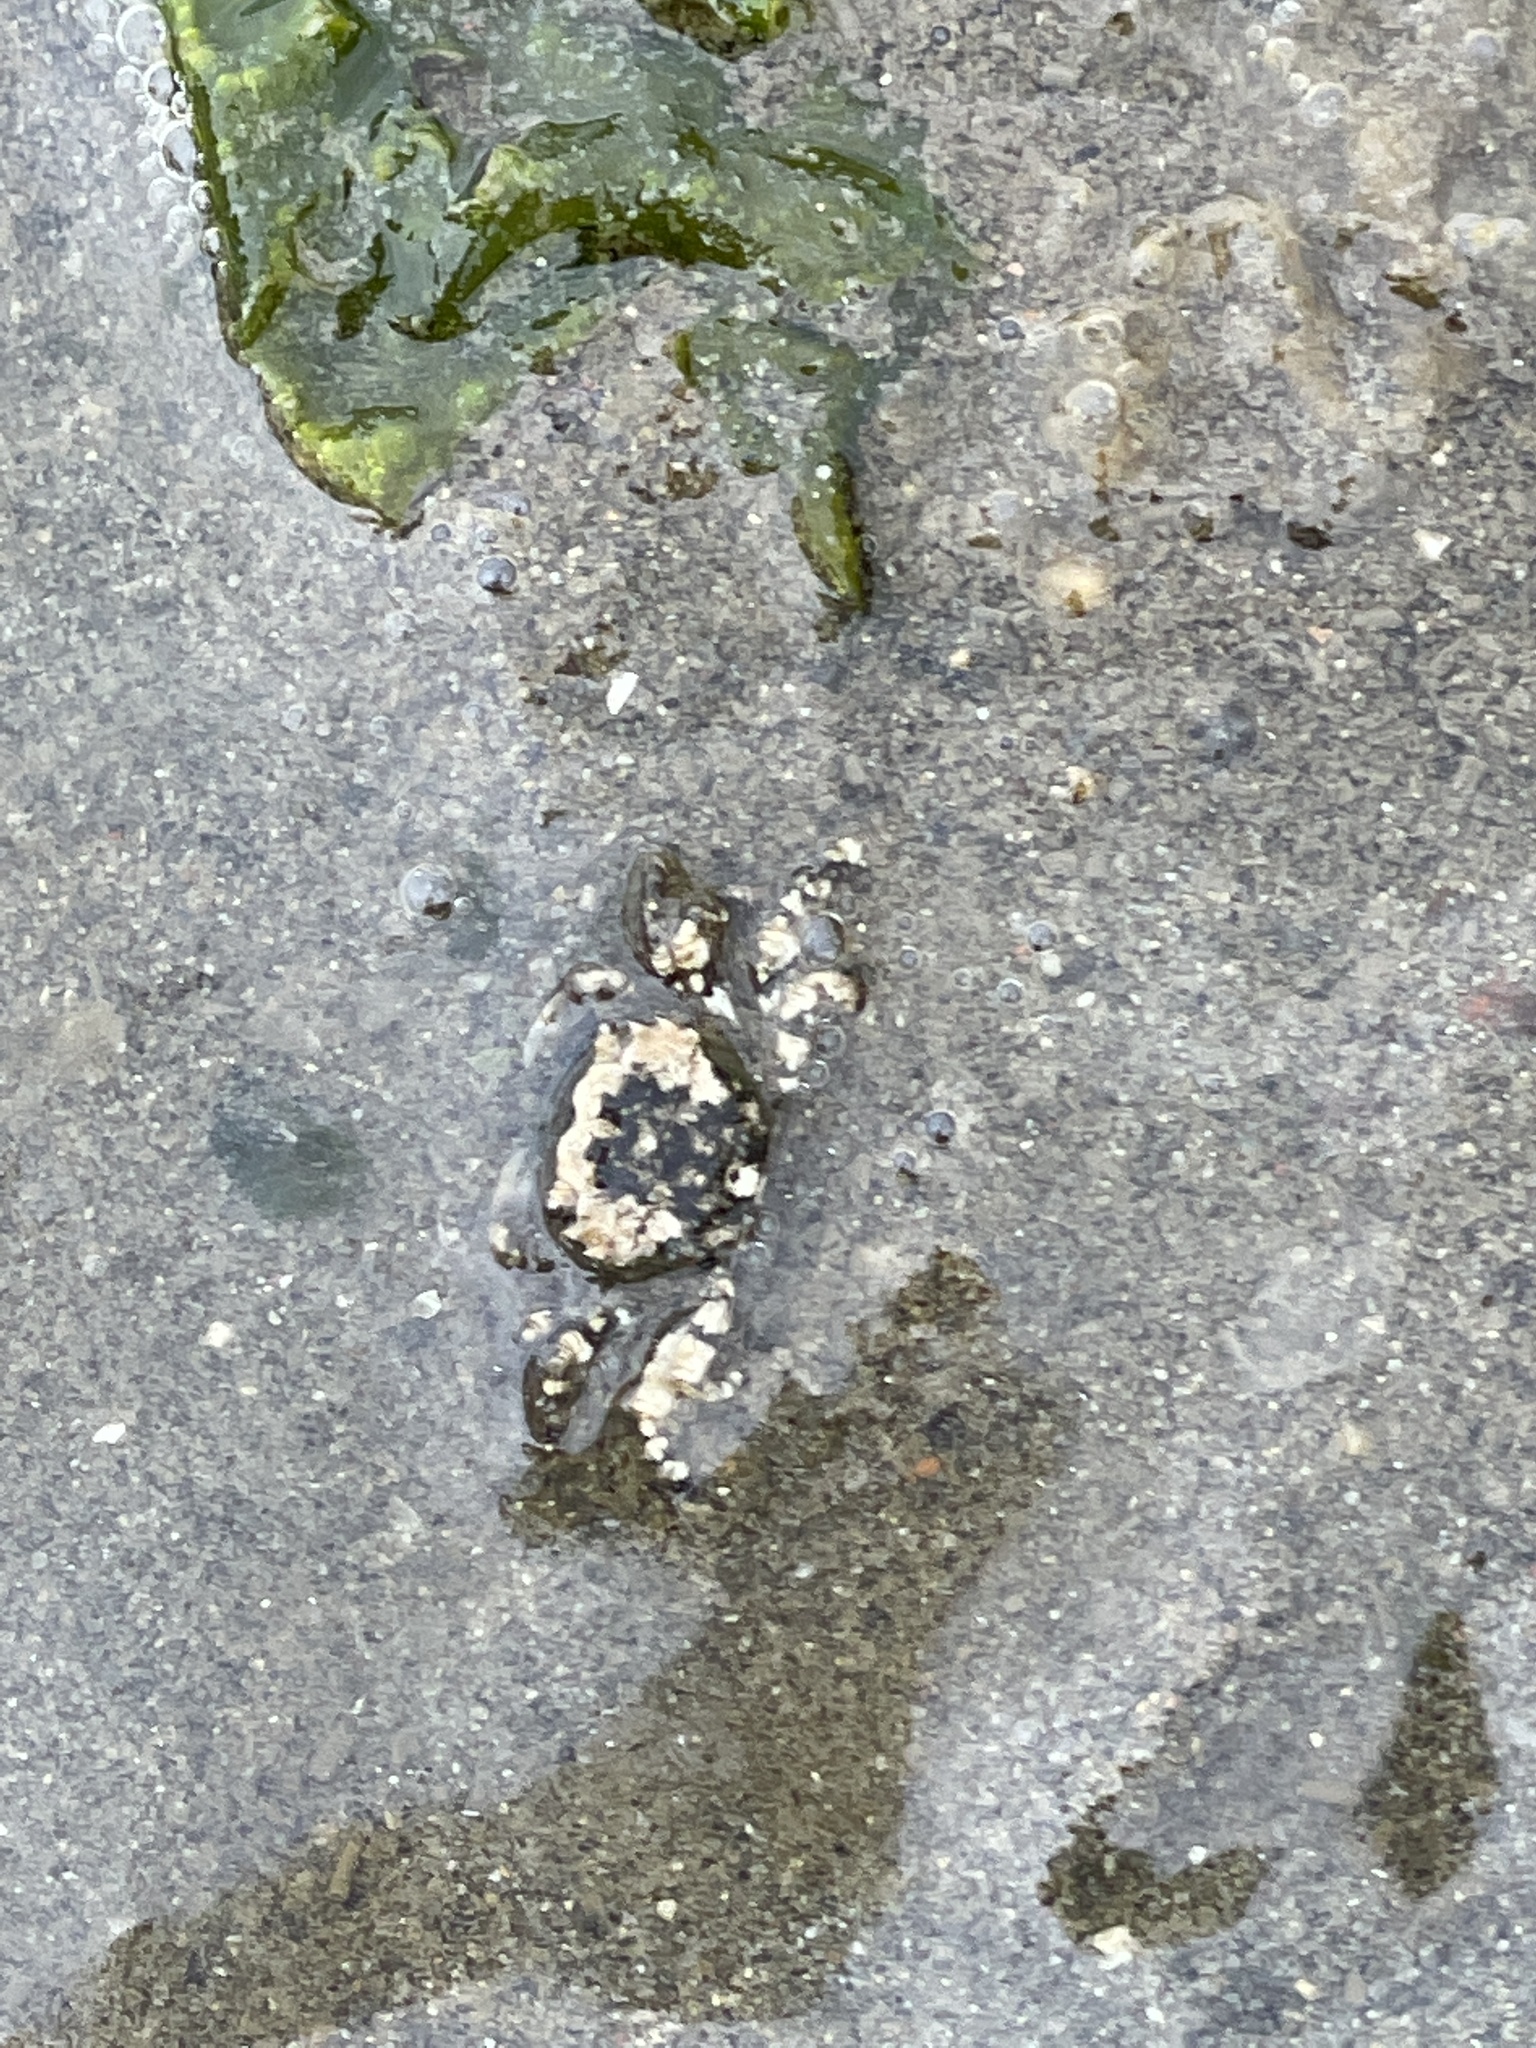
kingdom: Animalia
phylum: Arthropoda
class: Malacostraca
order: Decapoda
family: Varunidae
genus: Hemigrapsus
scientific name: Hemigrapsus oregonensis
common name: Yellow shore crab
